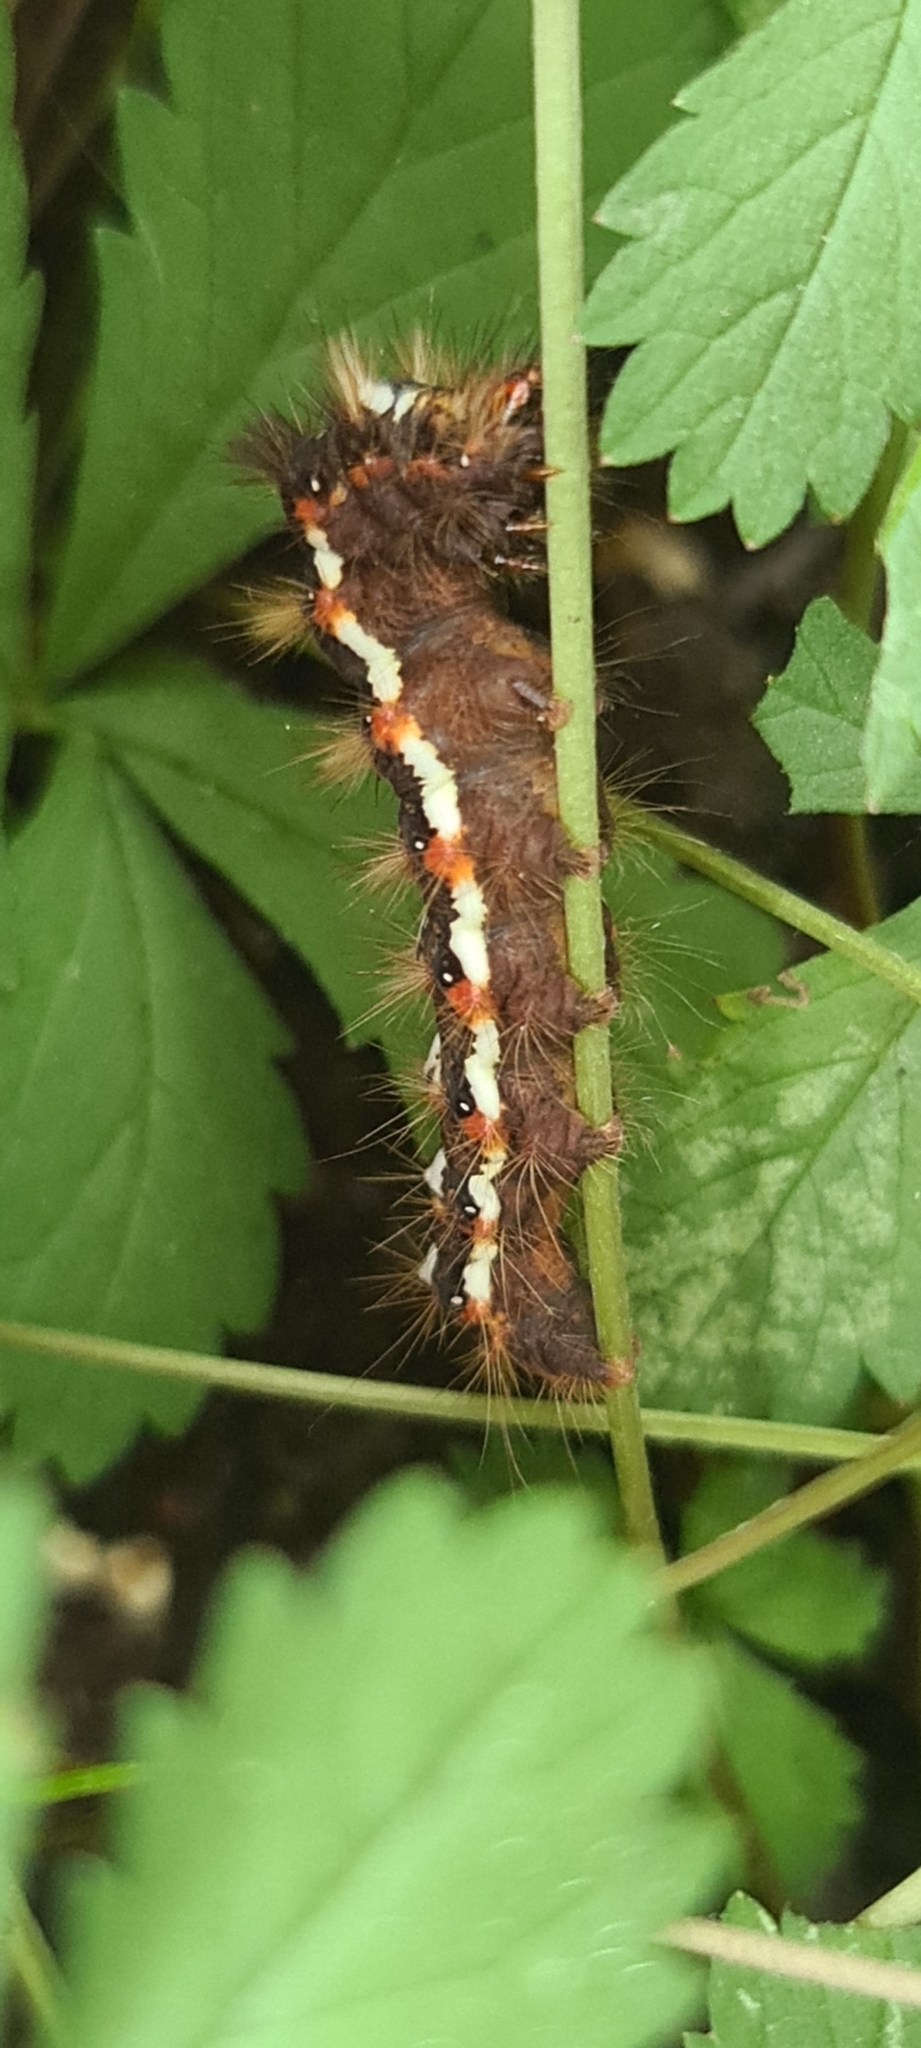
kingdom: Animalia
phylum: Arthropoda
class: Insecta
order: Lepidoptera
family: Noctuidae
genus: Acronicta
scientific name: Acronicta rumicis
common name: Knot grass
